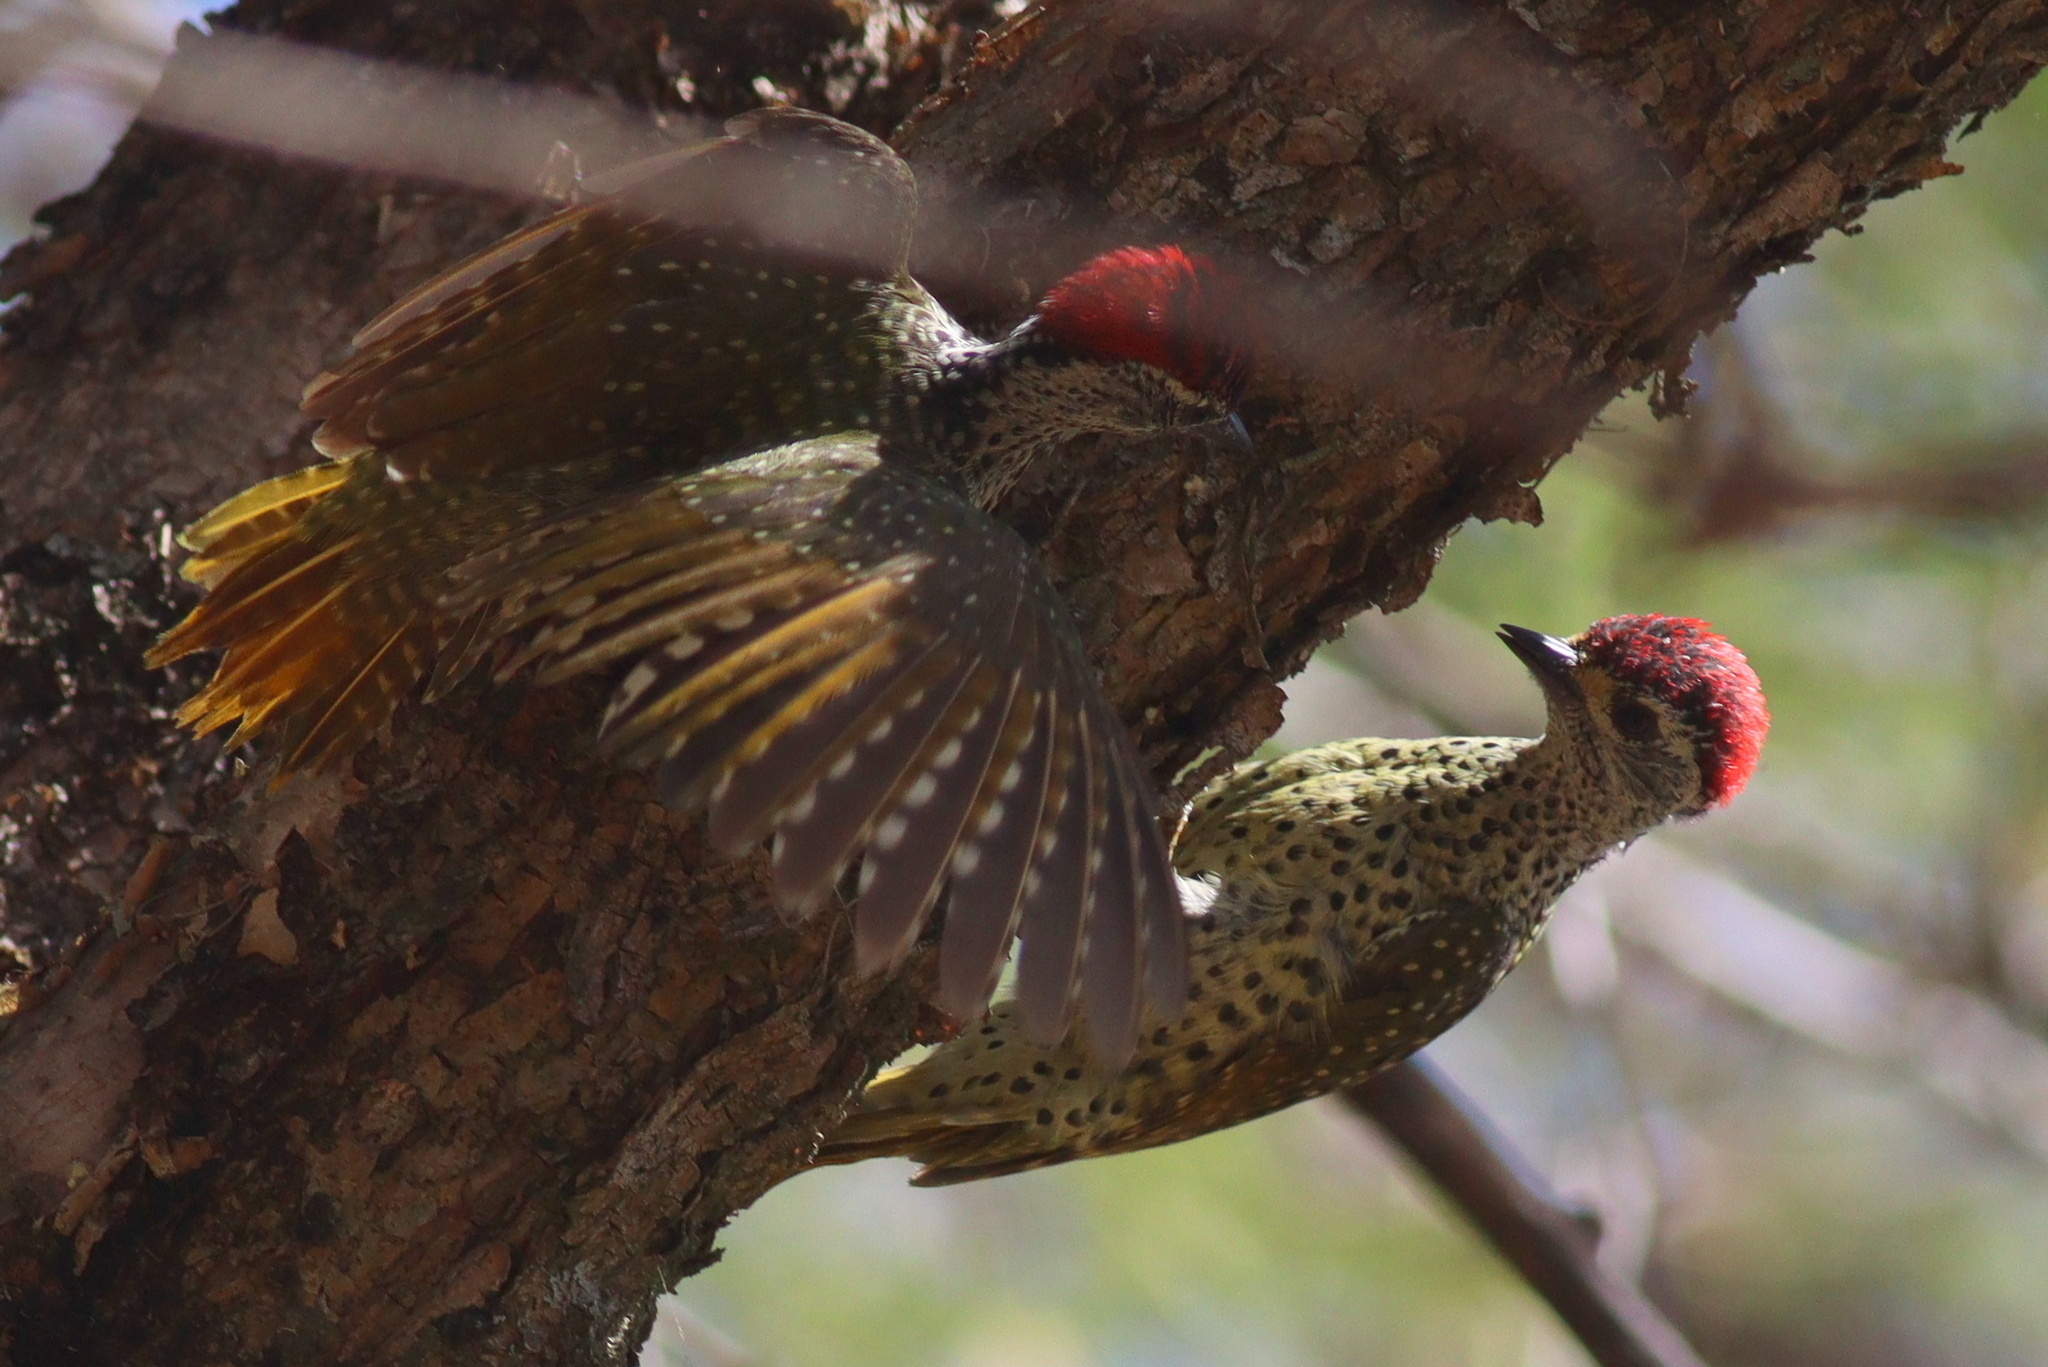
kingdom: Animalia
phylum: Chordata
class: Aves
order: Piciformes
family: Picidae
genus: Campethera
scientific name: Campethera maculosa
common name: Little green woodpecker
